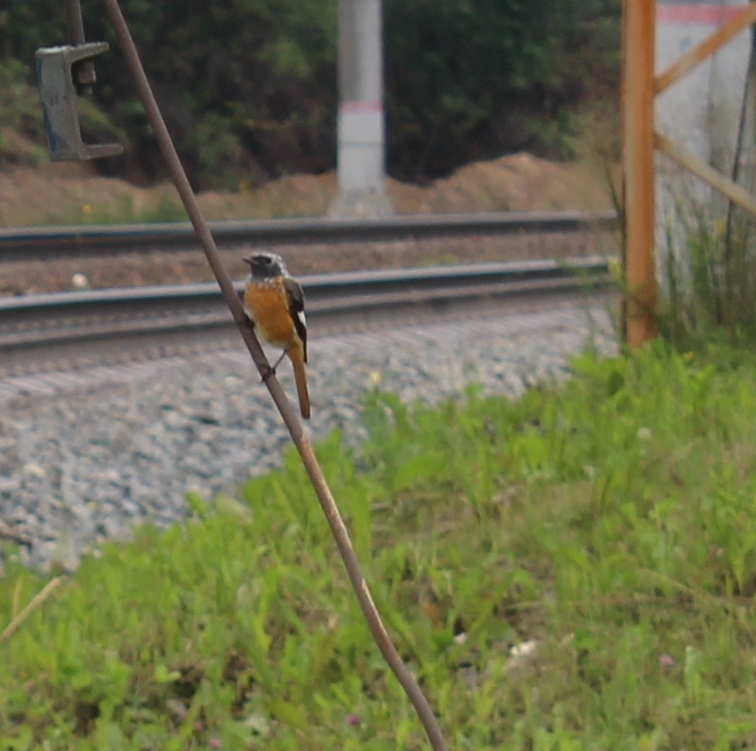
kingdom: Animalia
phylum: Chordata
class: Aves
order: Passeriformes
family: Muscicapidae
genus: Phoenicurus
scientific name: Phoenicurus auroreus
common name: Daurian redstart
